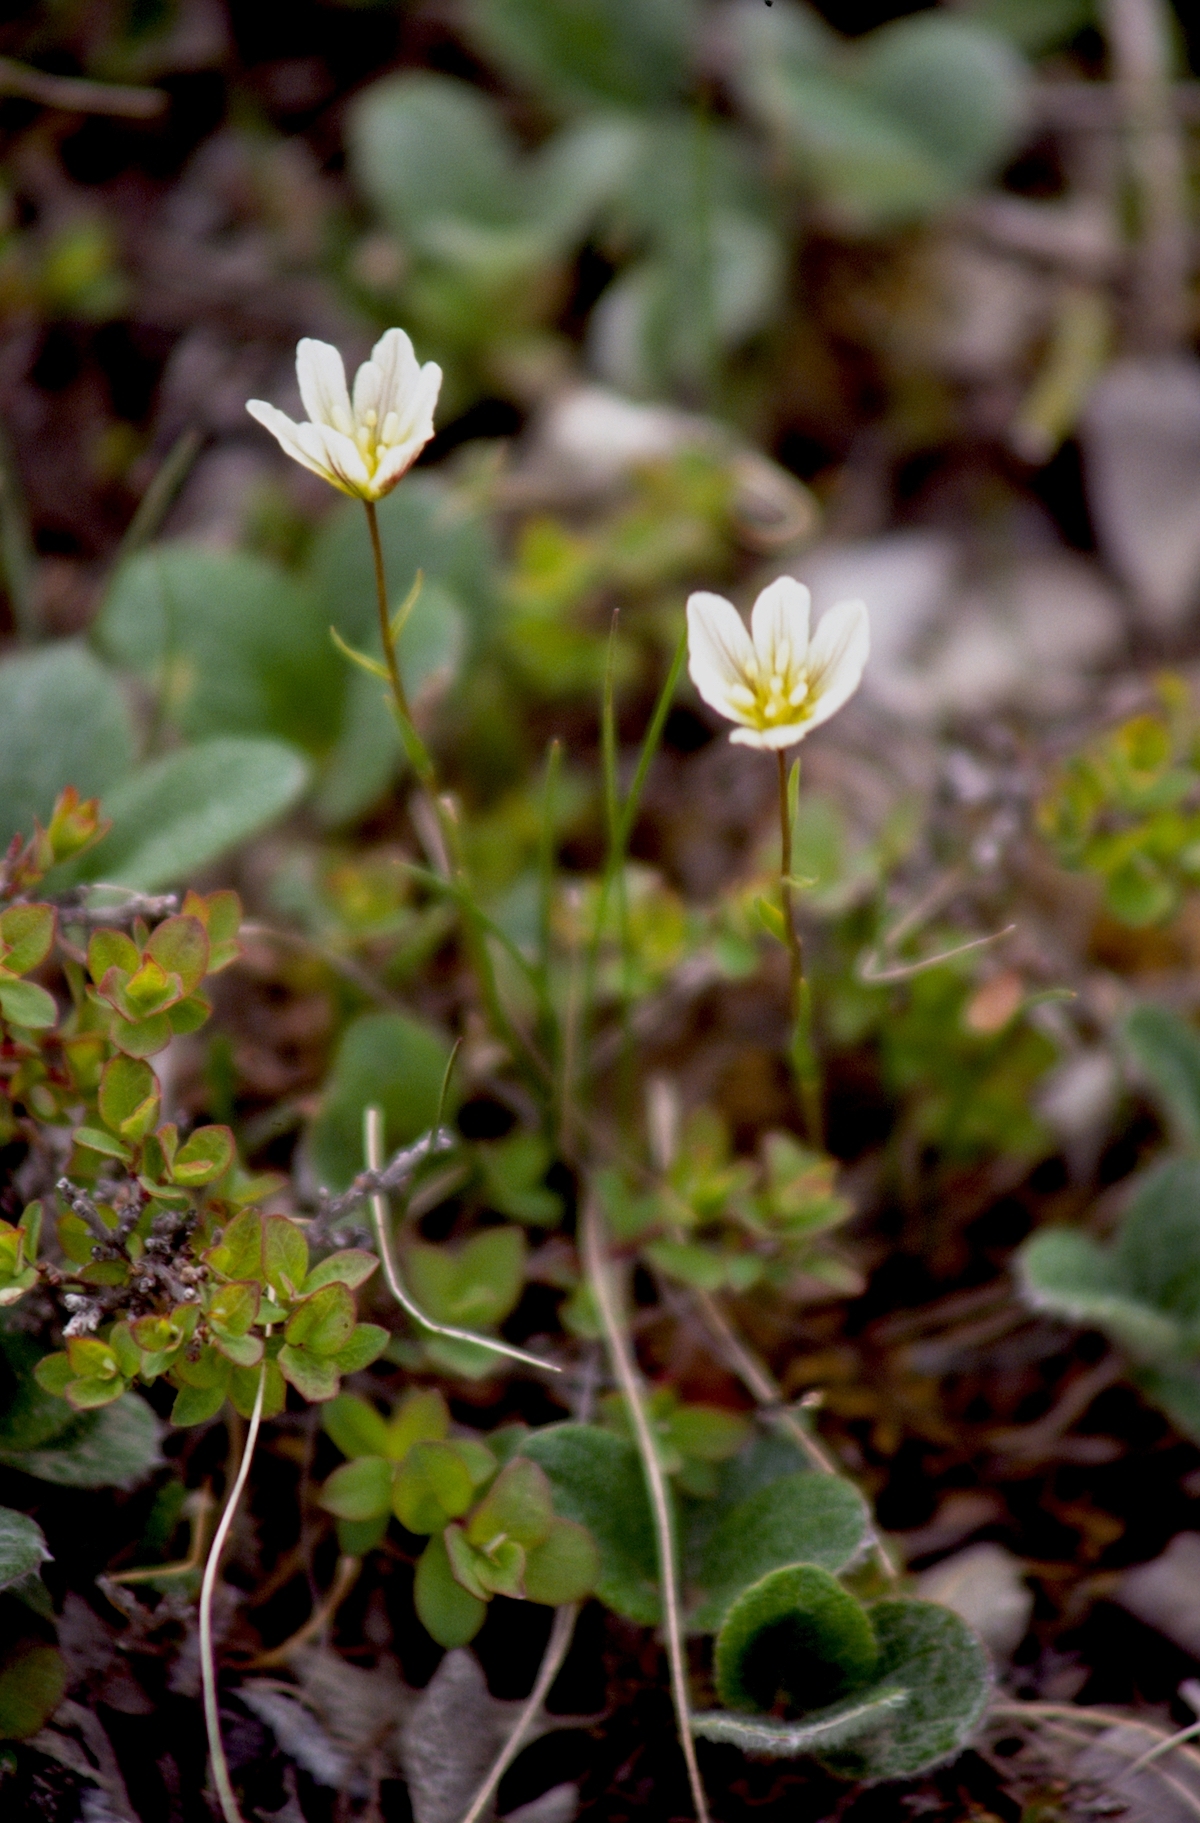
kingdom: Plantae
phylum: Tracheophyta
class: Liliopsida
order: Liliales
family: Liliaceae
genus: Gagea
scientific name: Gagea serotina
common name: Snowdon lily
